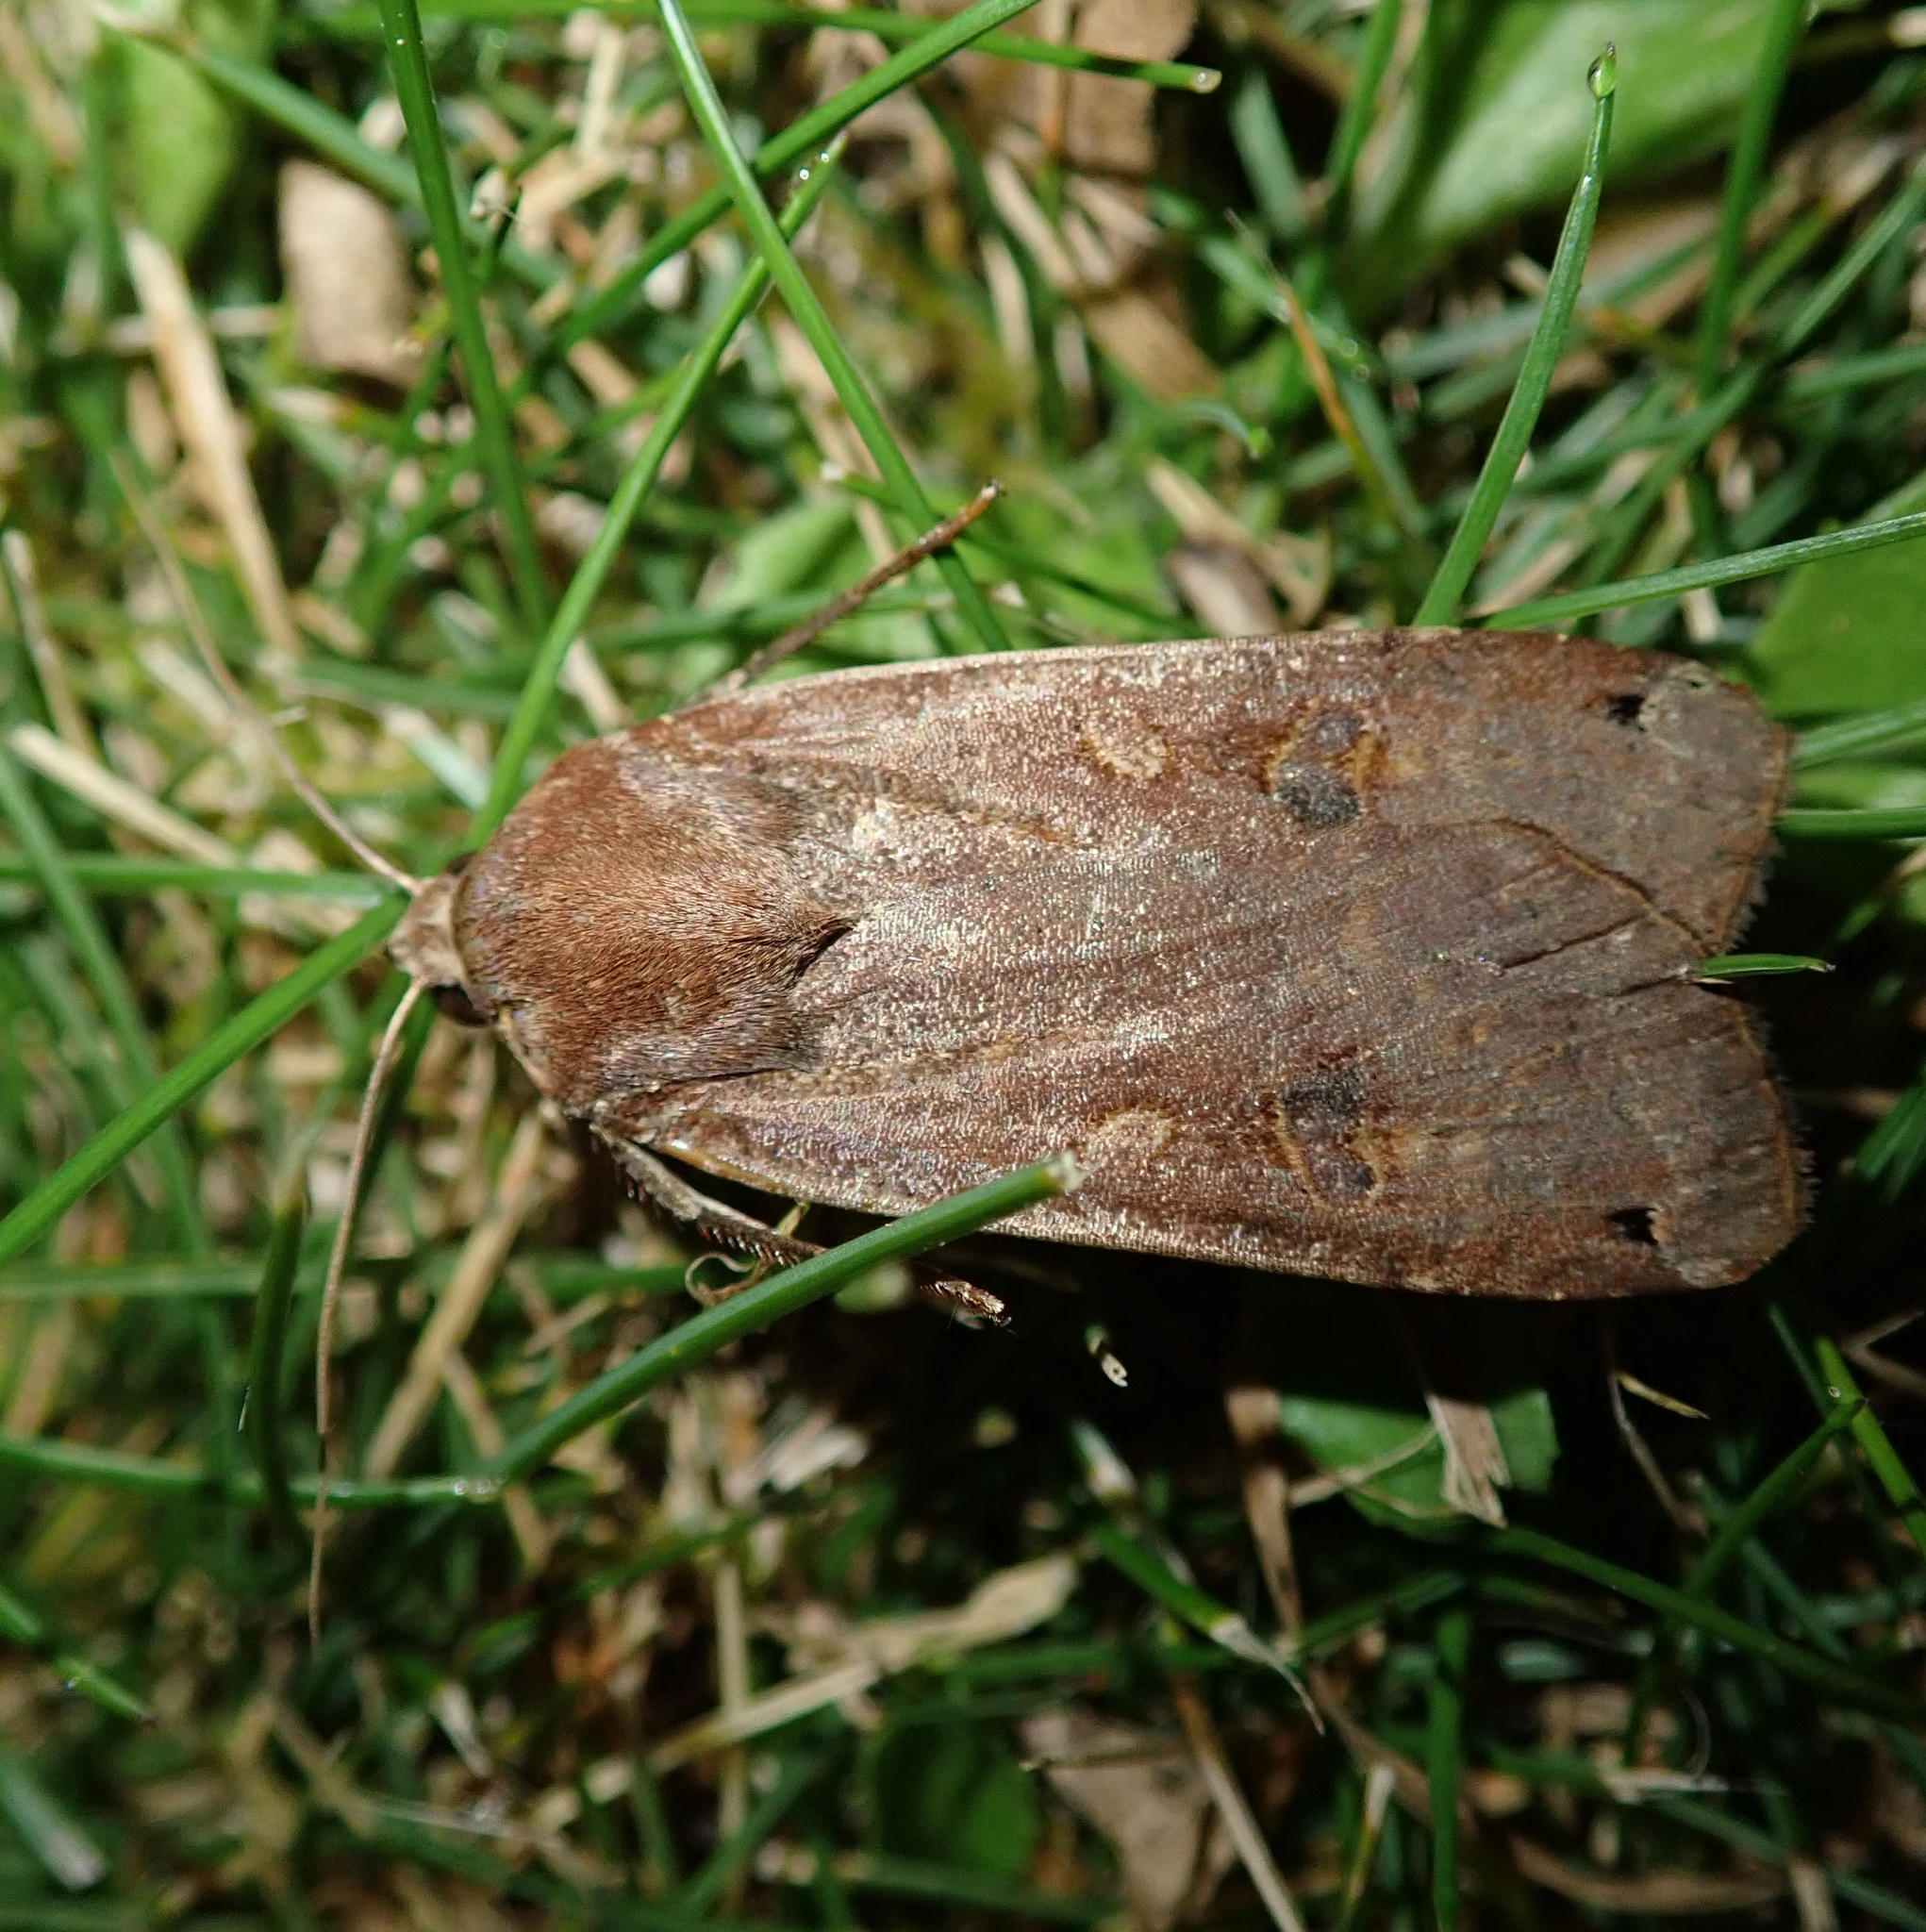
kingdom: Animalia
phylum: Arthropoda
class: Insecta
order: Lepidoptera
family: Noctuidae
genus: Noctua
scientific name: Noctua pronuba
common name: Large yellow underwing
